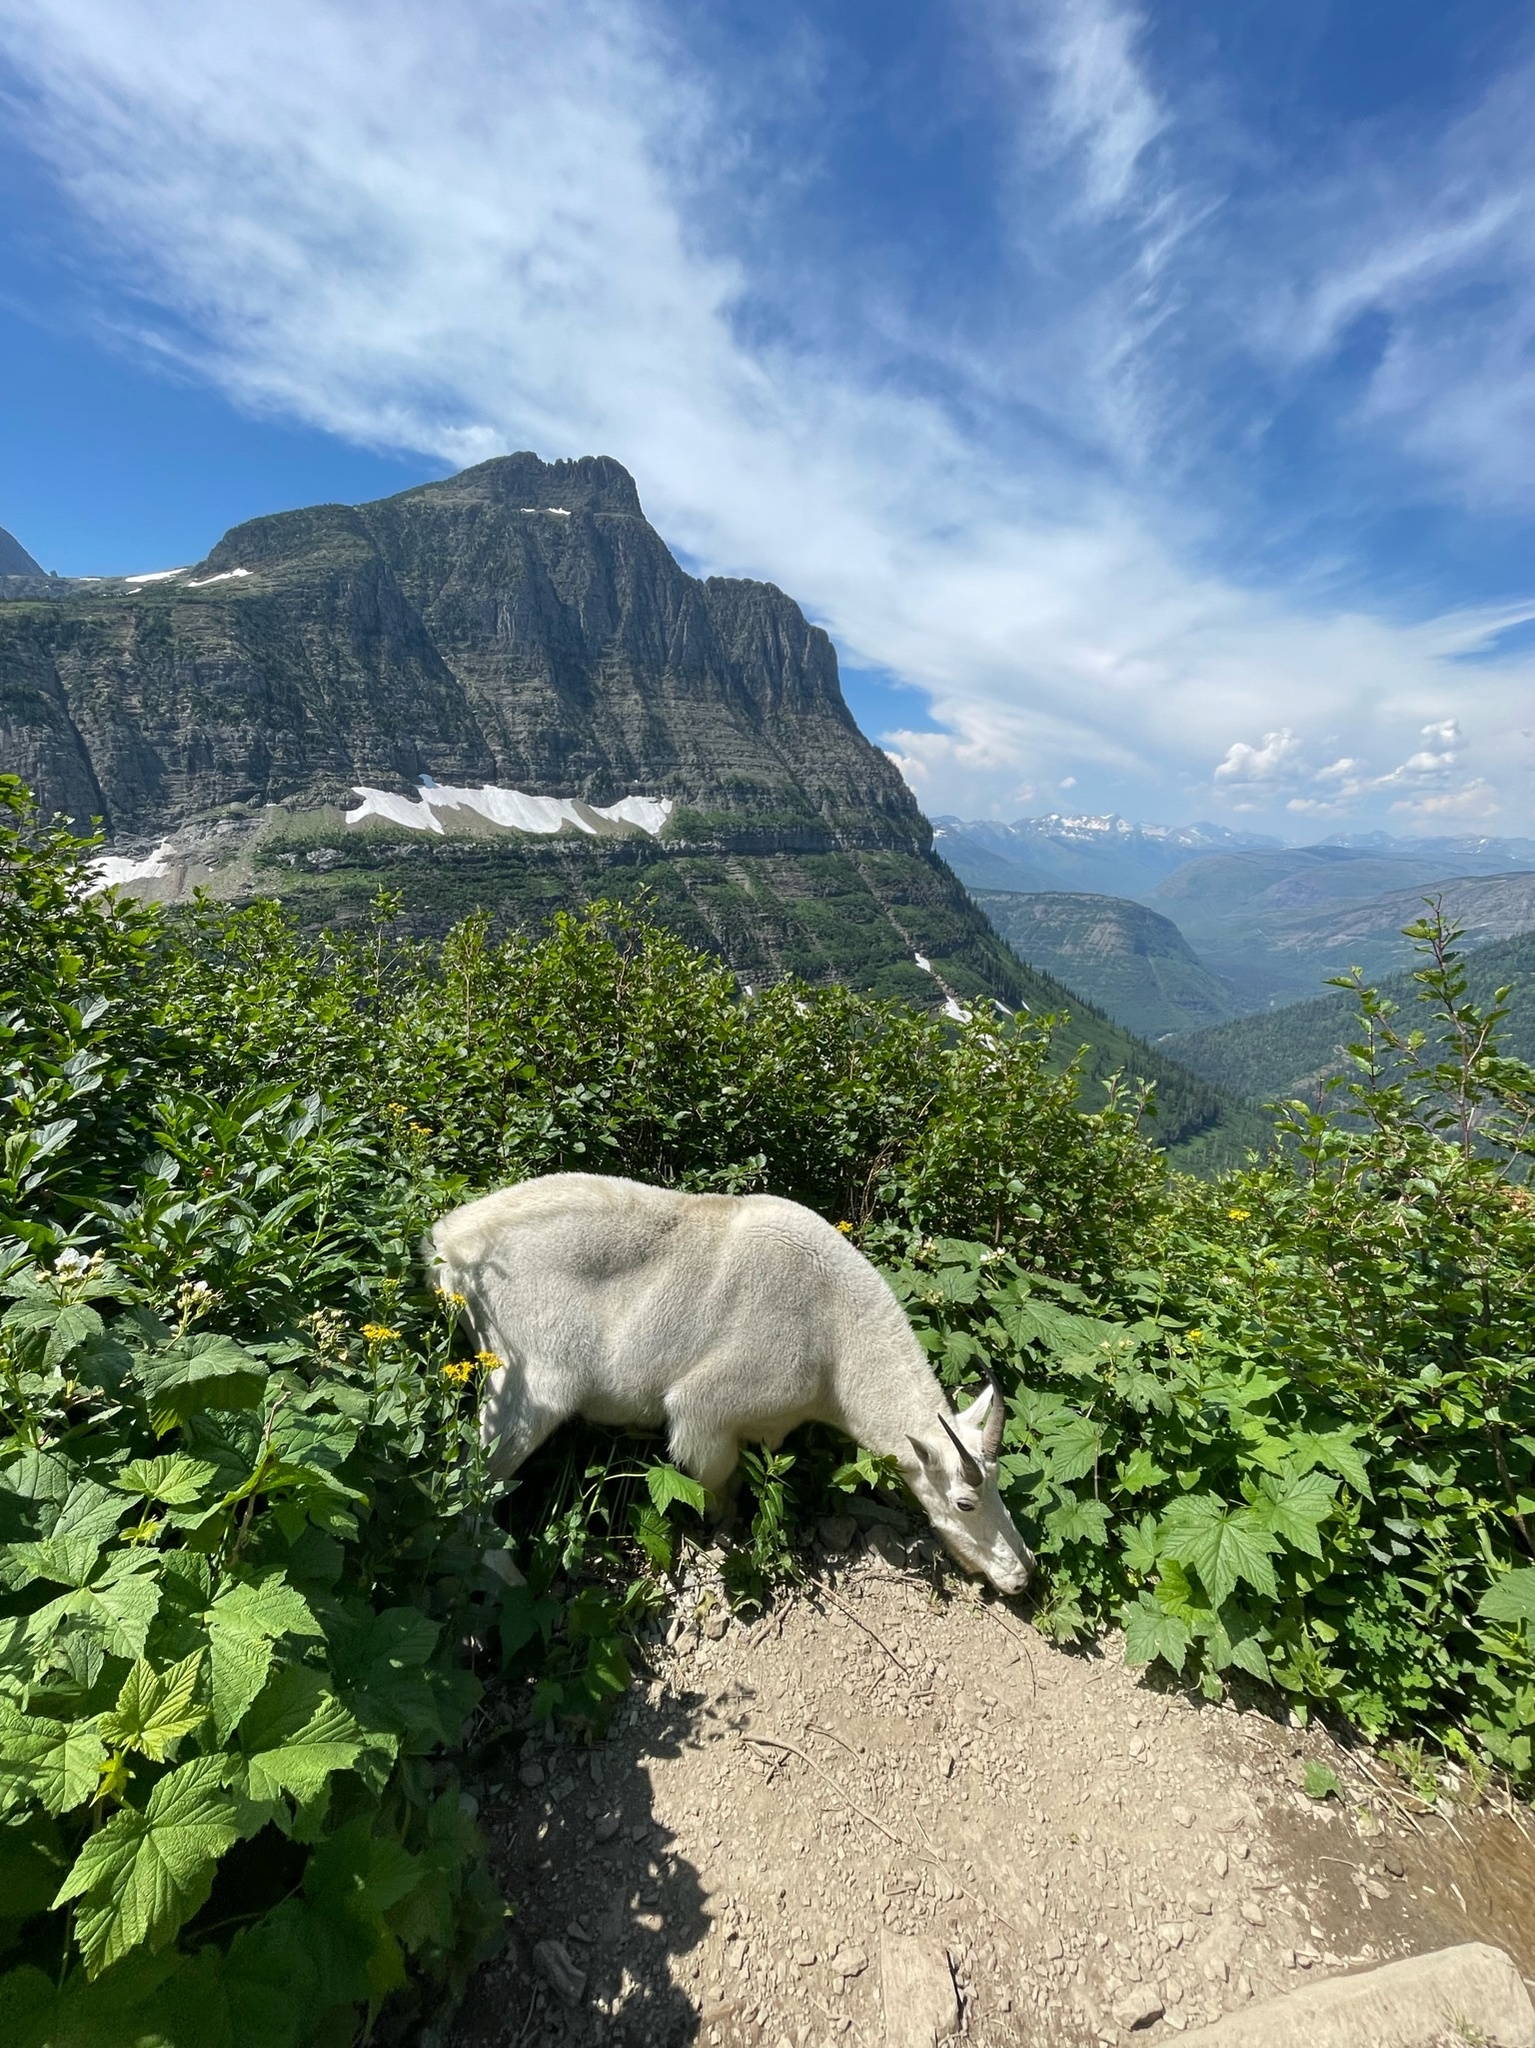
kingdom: Animalia
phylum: Chordata
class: Mammalia
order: Artiodactyla
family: Bovidae
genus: Oreamnos
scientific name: Oreamnos americanus
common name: Mountain goat
